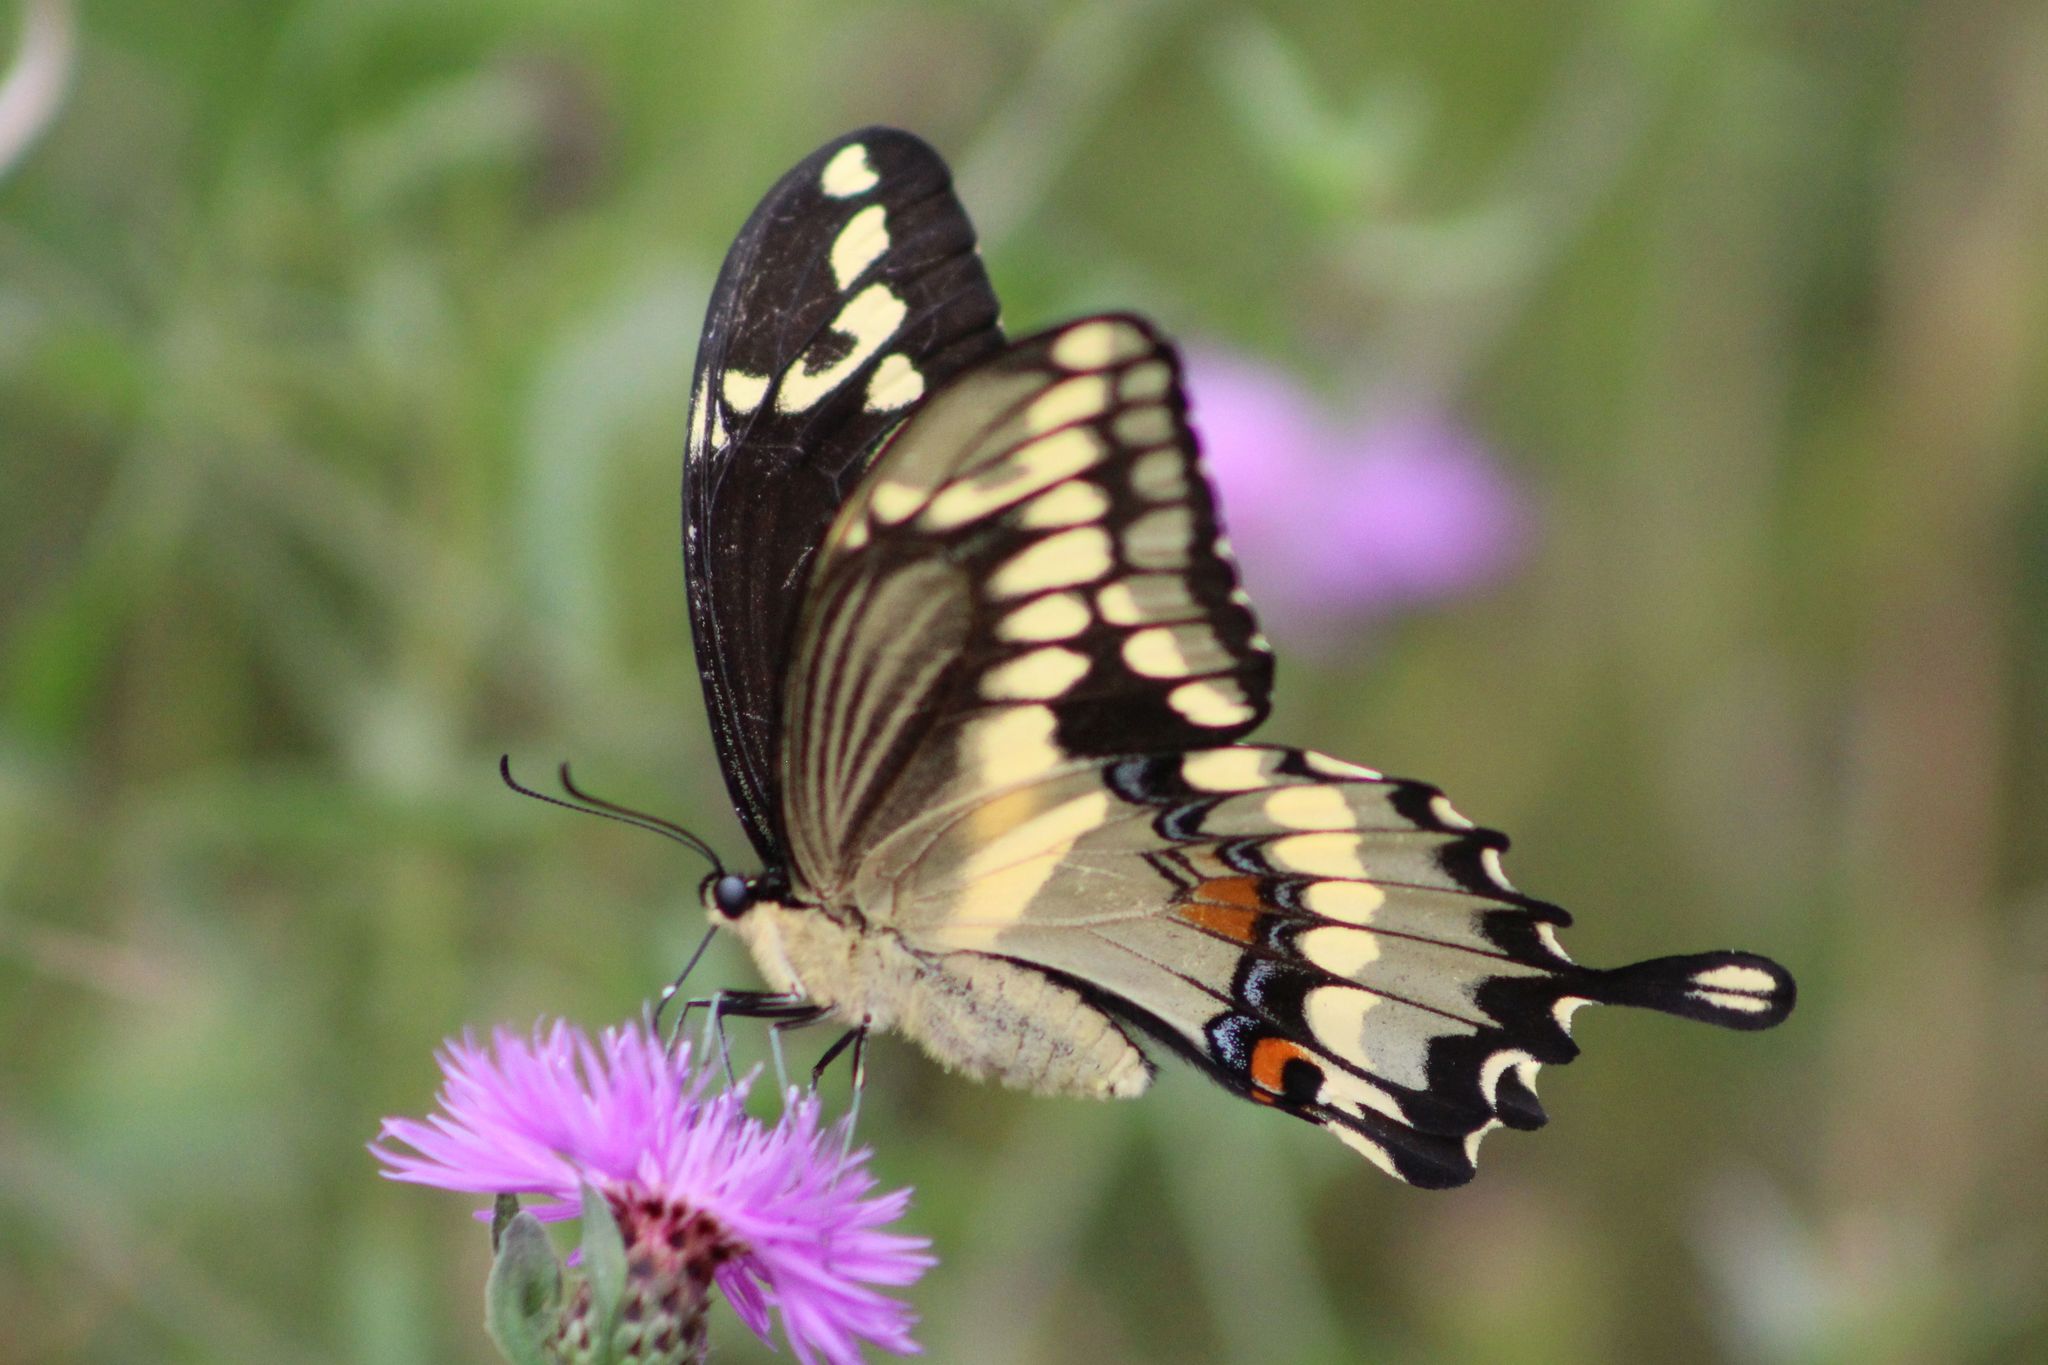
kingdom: Animalia
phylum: Arthropoda
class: Insecta
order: Lepidoptera
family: Papilionidae
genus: Papilio
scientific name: Papilio cresphontes
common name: Giant swallowtail
